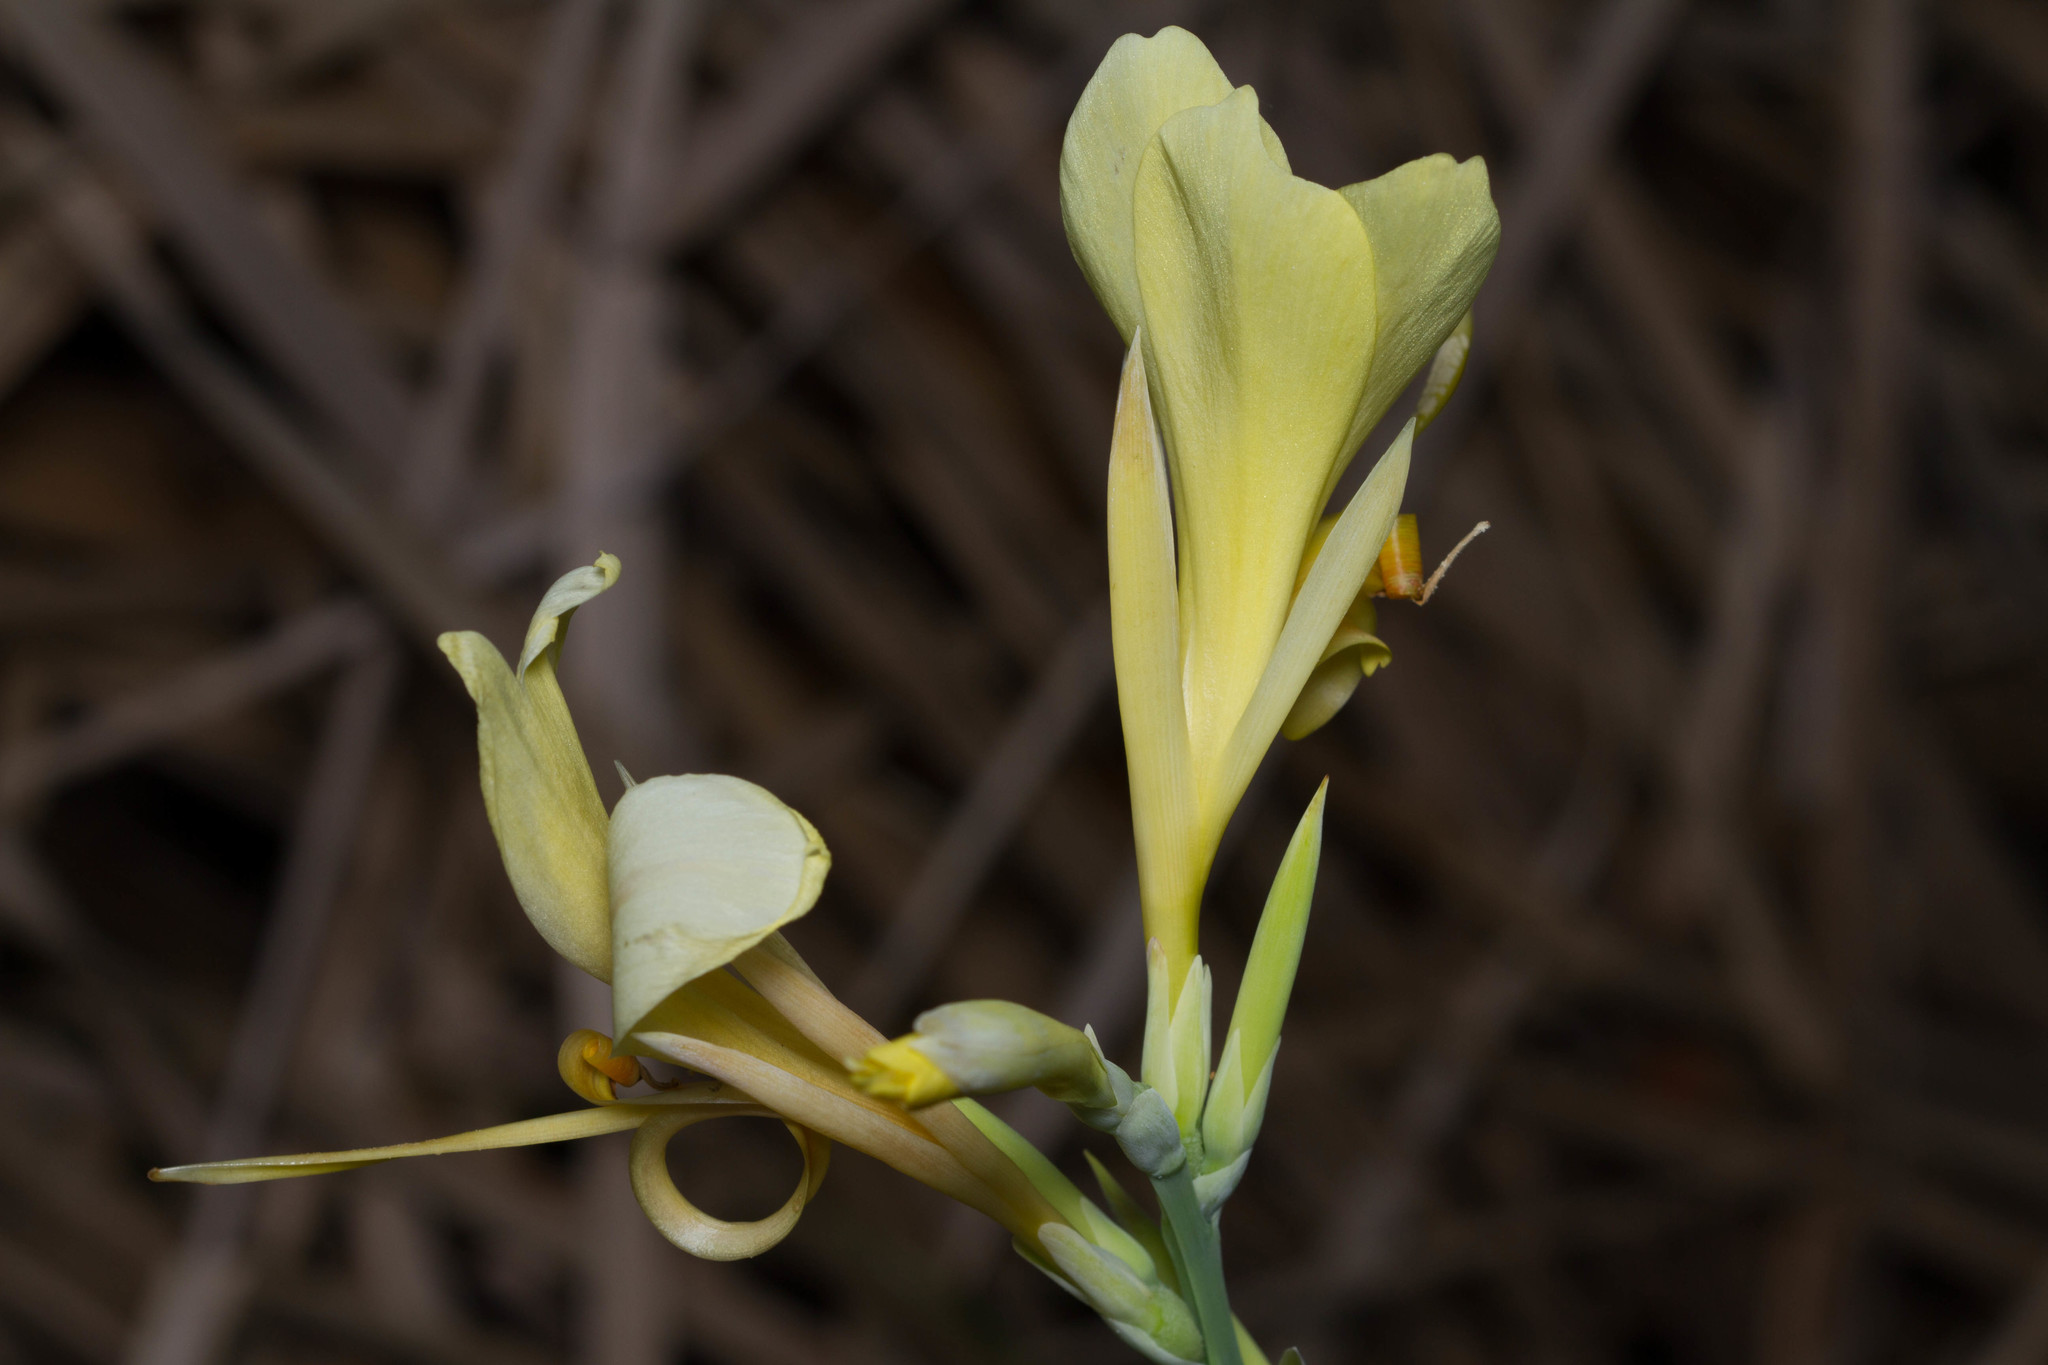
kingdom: Plantae
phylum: Tracheophyta
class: Liliopsida
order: Zingiberales
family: Cannaceae
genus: Canna
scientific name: Canna glauca
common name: Louisiana canna
